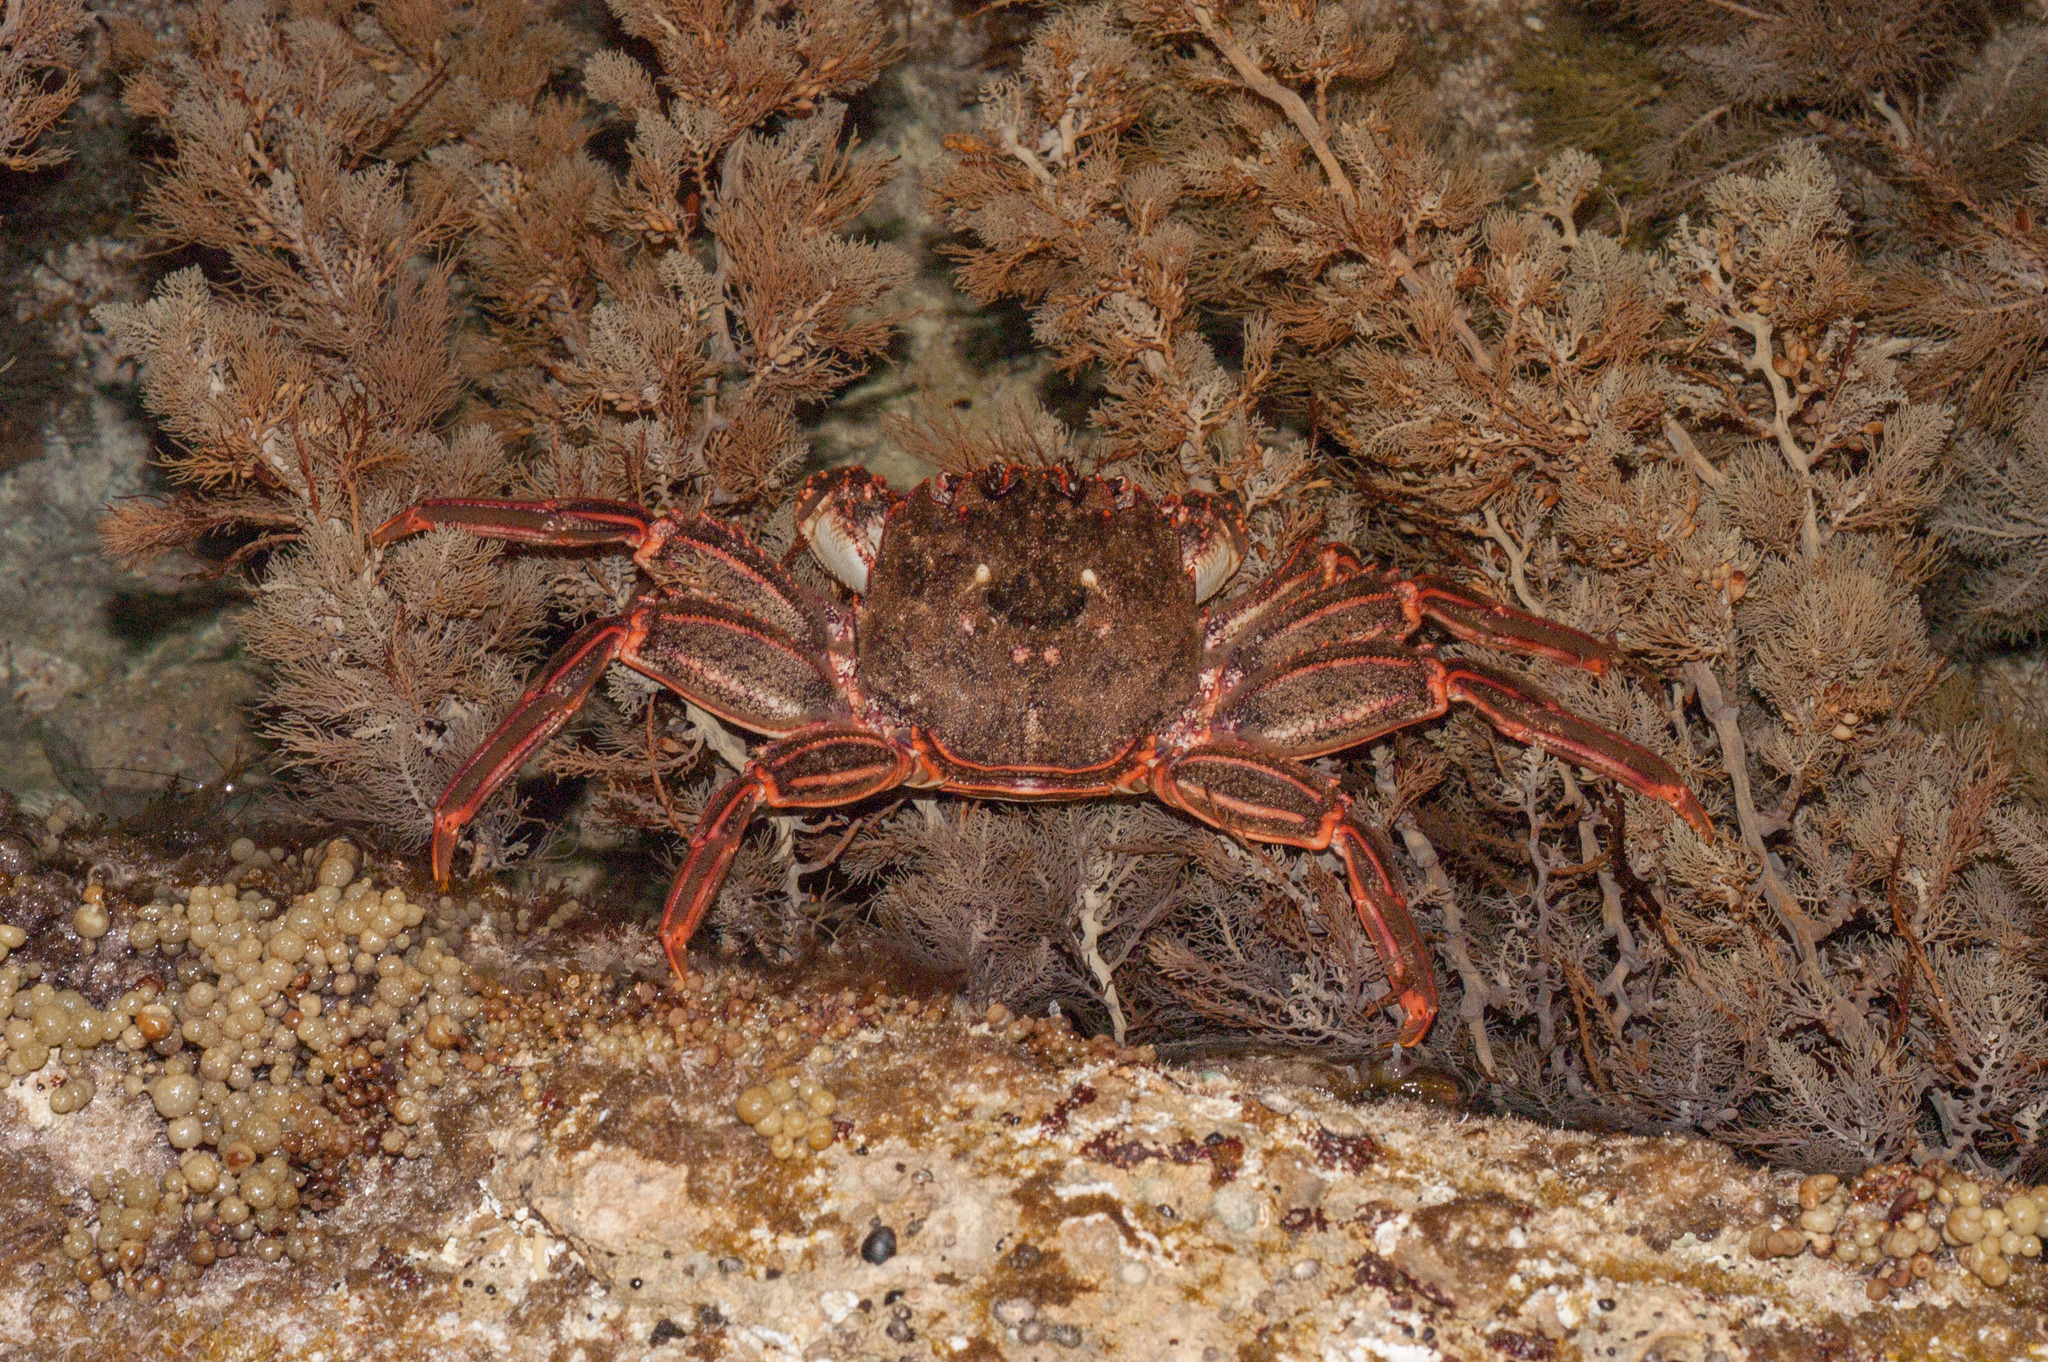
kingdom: Animalia
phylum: Arthropoda
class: Malacostraca
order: Decapoda
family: Plagusiidae
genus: Guinusia
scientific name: Guinusia chabrus
